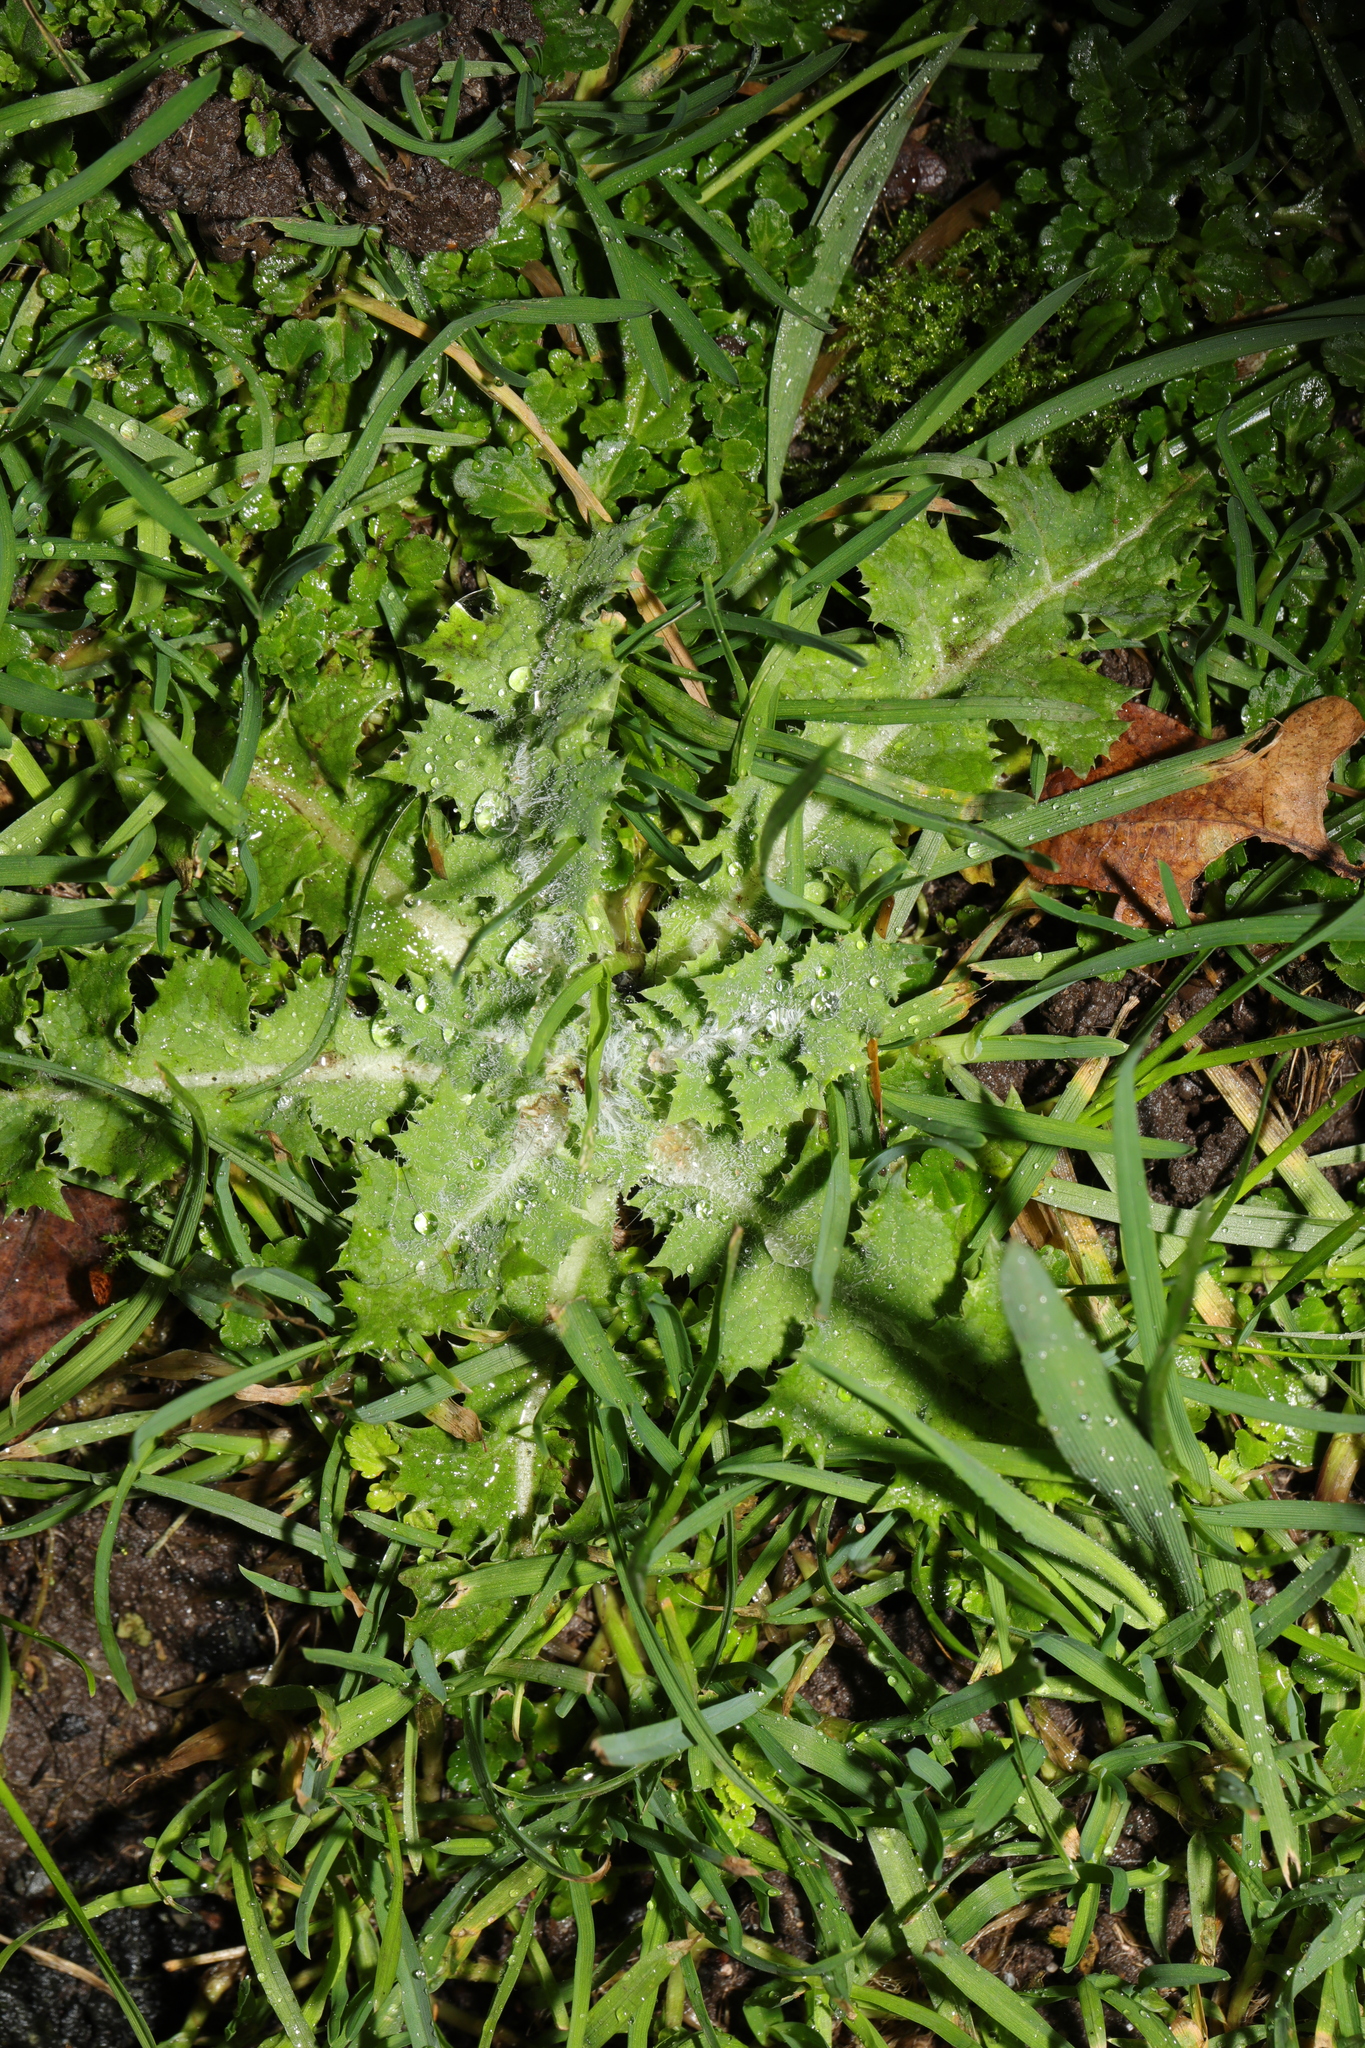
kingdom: Plantae
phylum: Tracheophyta
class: Magnoliopsida
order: Asterales
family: Asteraceae
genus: Sonchus
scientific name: Sonchus asper
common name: Prickly sow-thistle
